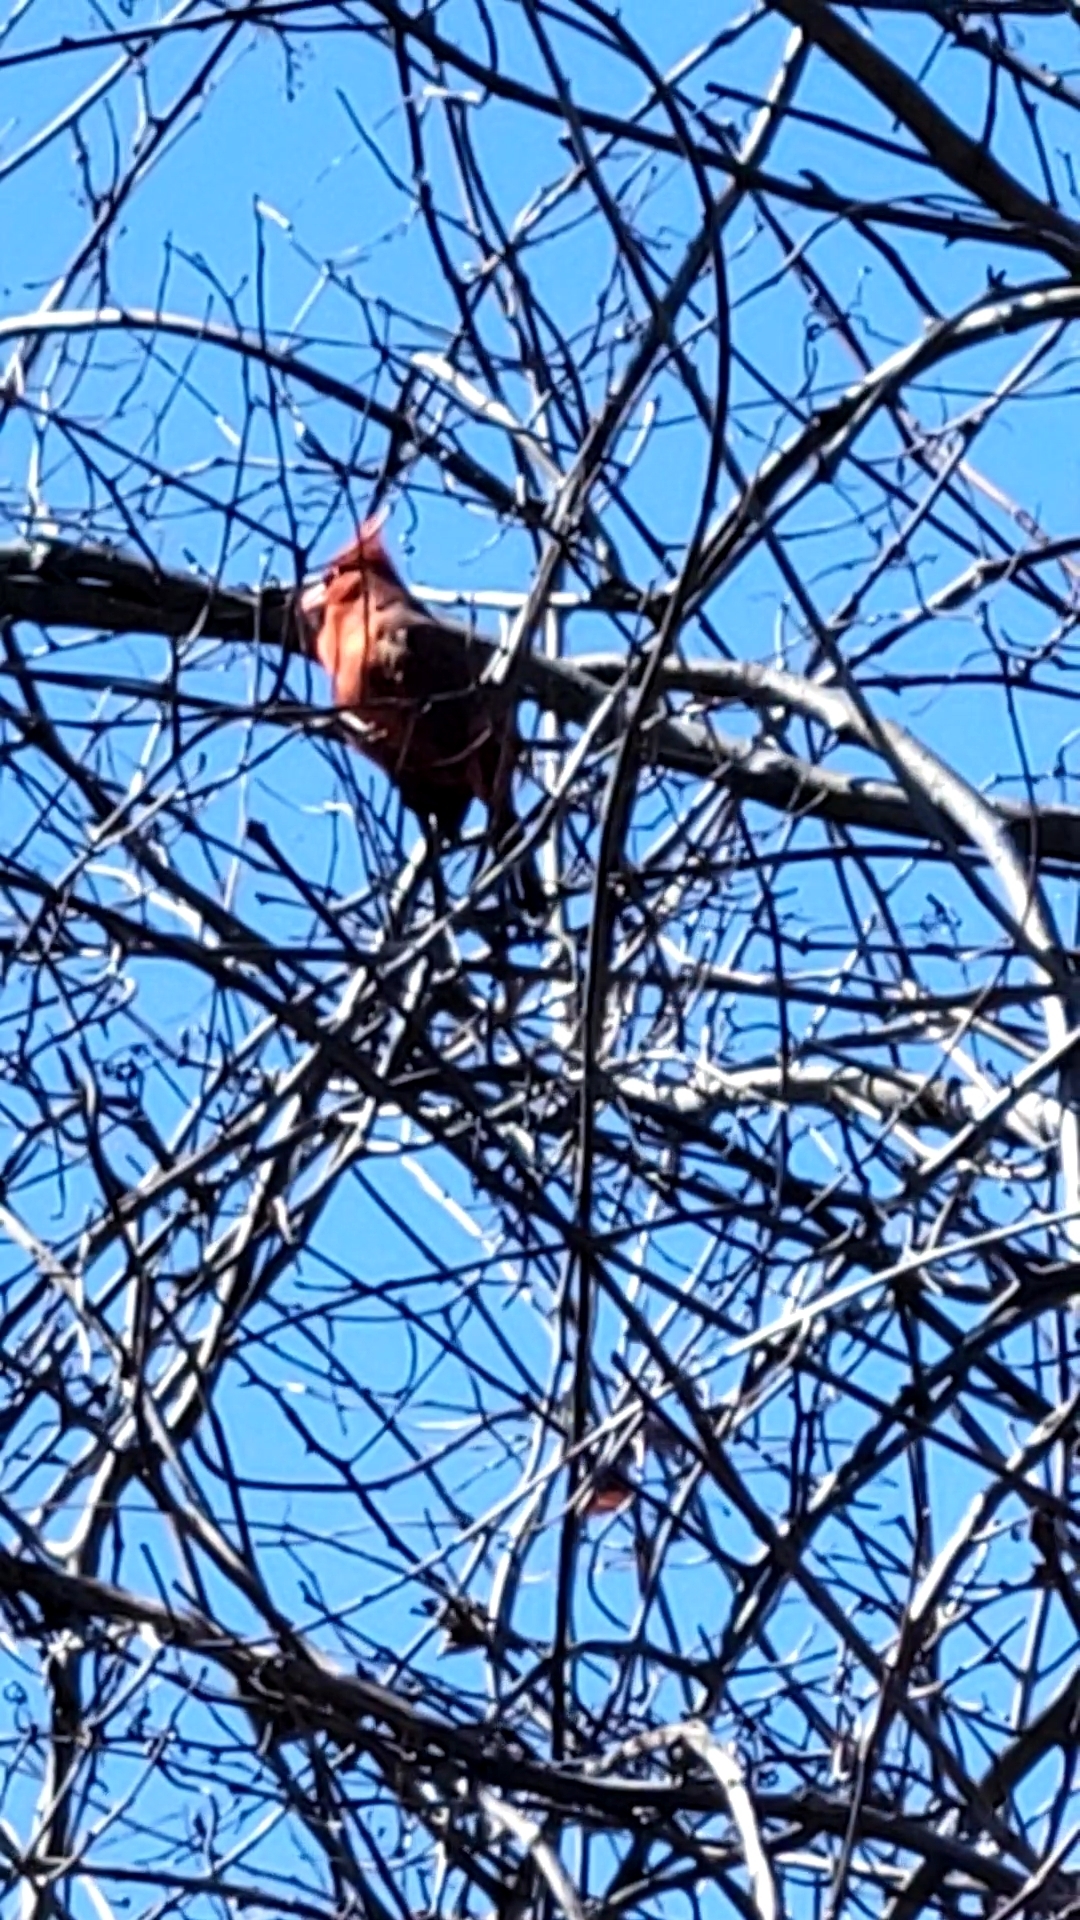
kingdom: Animalia
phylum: Chordata
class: Aves
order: Passeriformes
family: Cardinalidae
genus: Cardinalis
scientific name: Cardinalis cardinalis
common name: Northern cardinal
